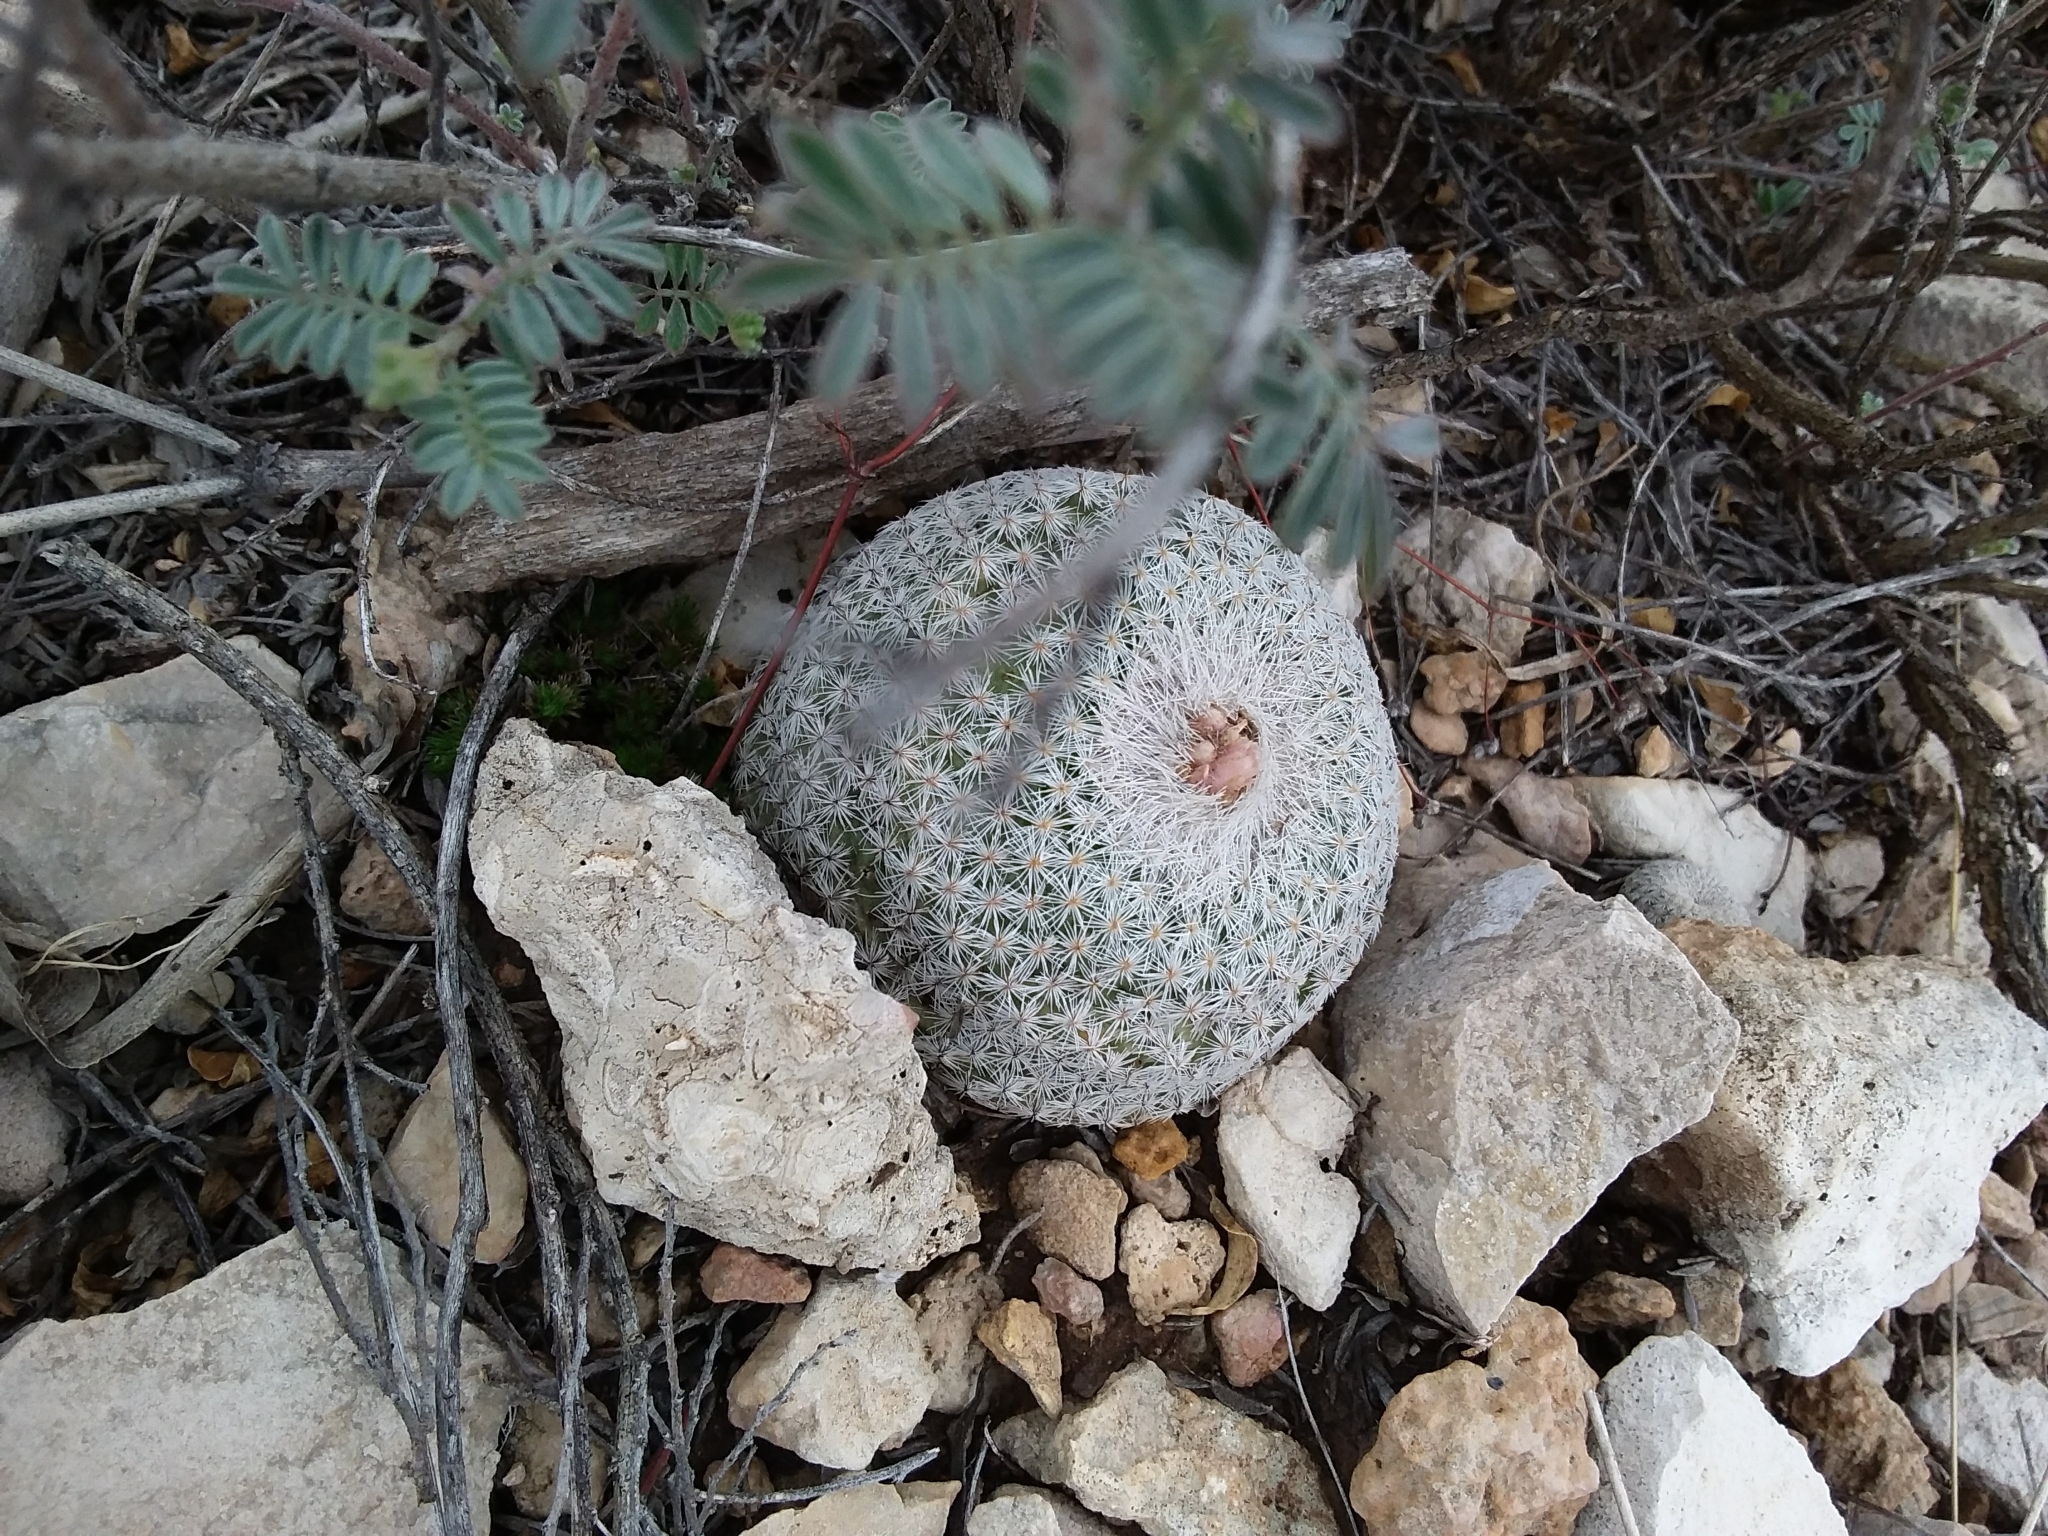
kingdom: Plantae
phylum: Tracheophyta
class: Magnoliopsida
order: Caryophyllales
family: Cactaceae
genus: Epithelantha
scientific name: Epithelantha micromeris
